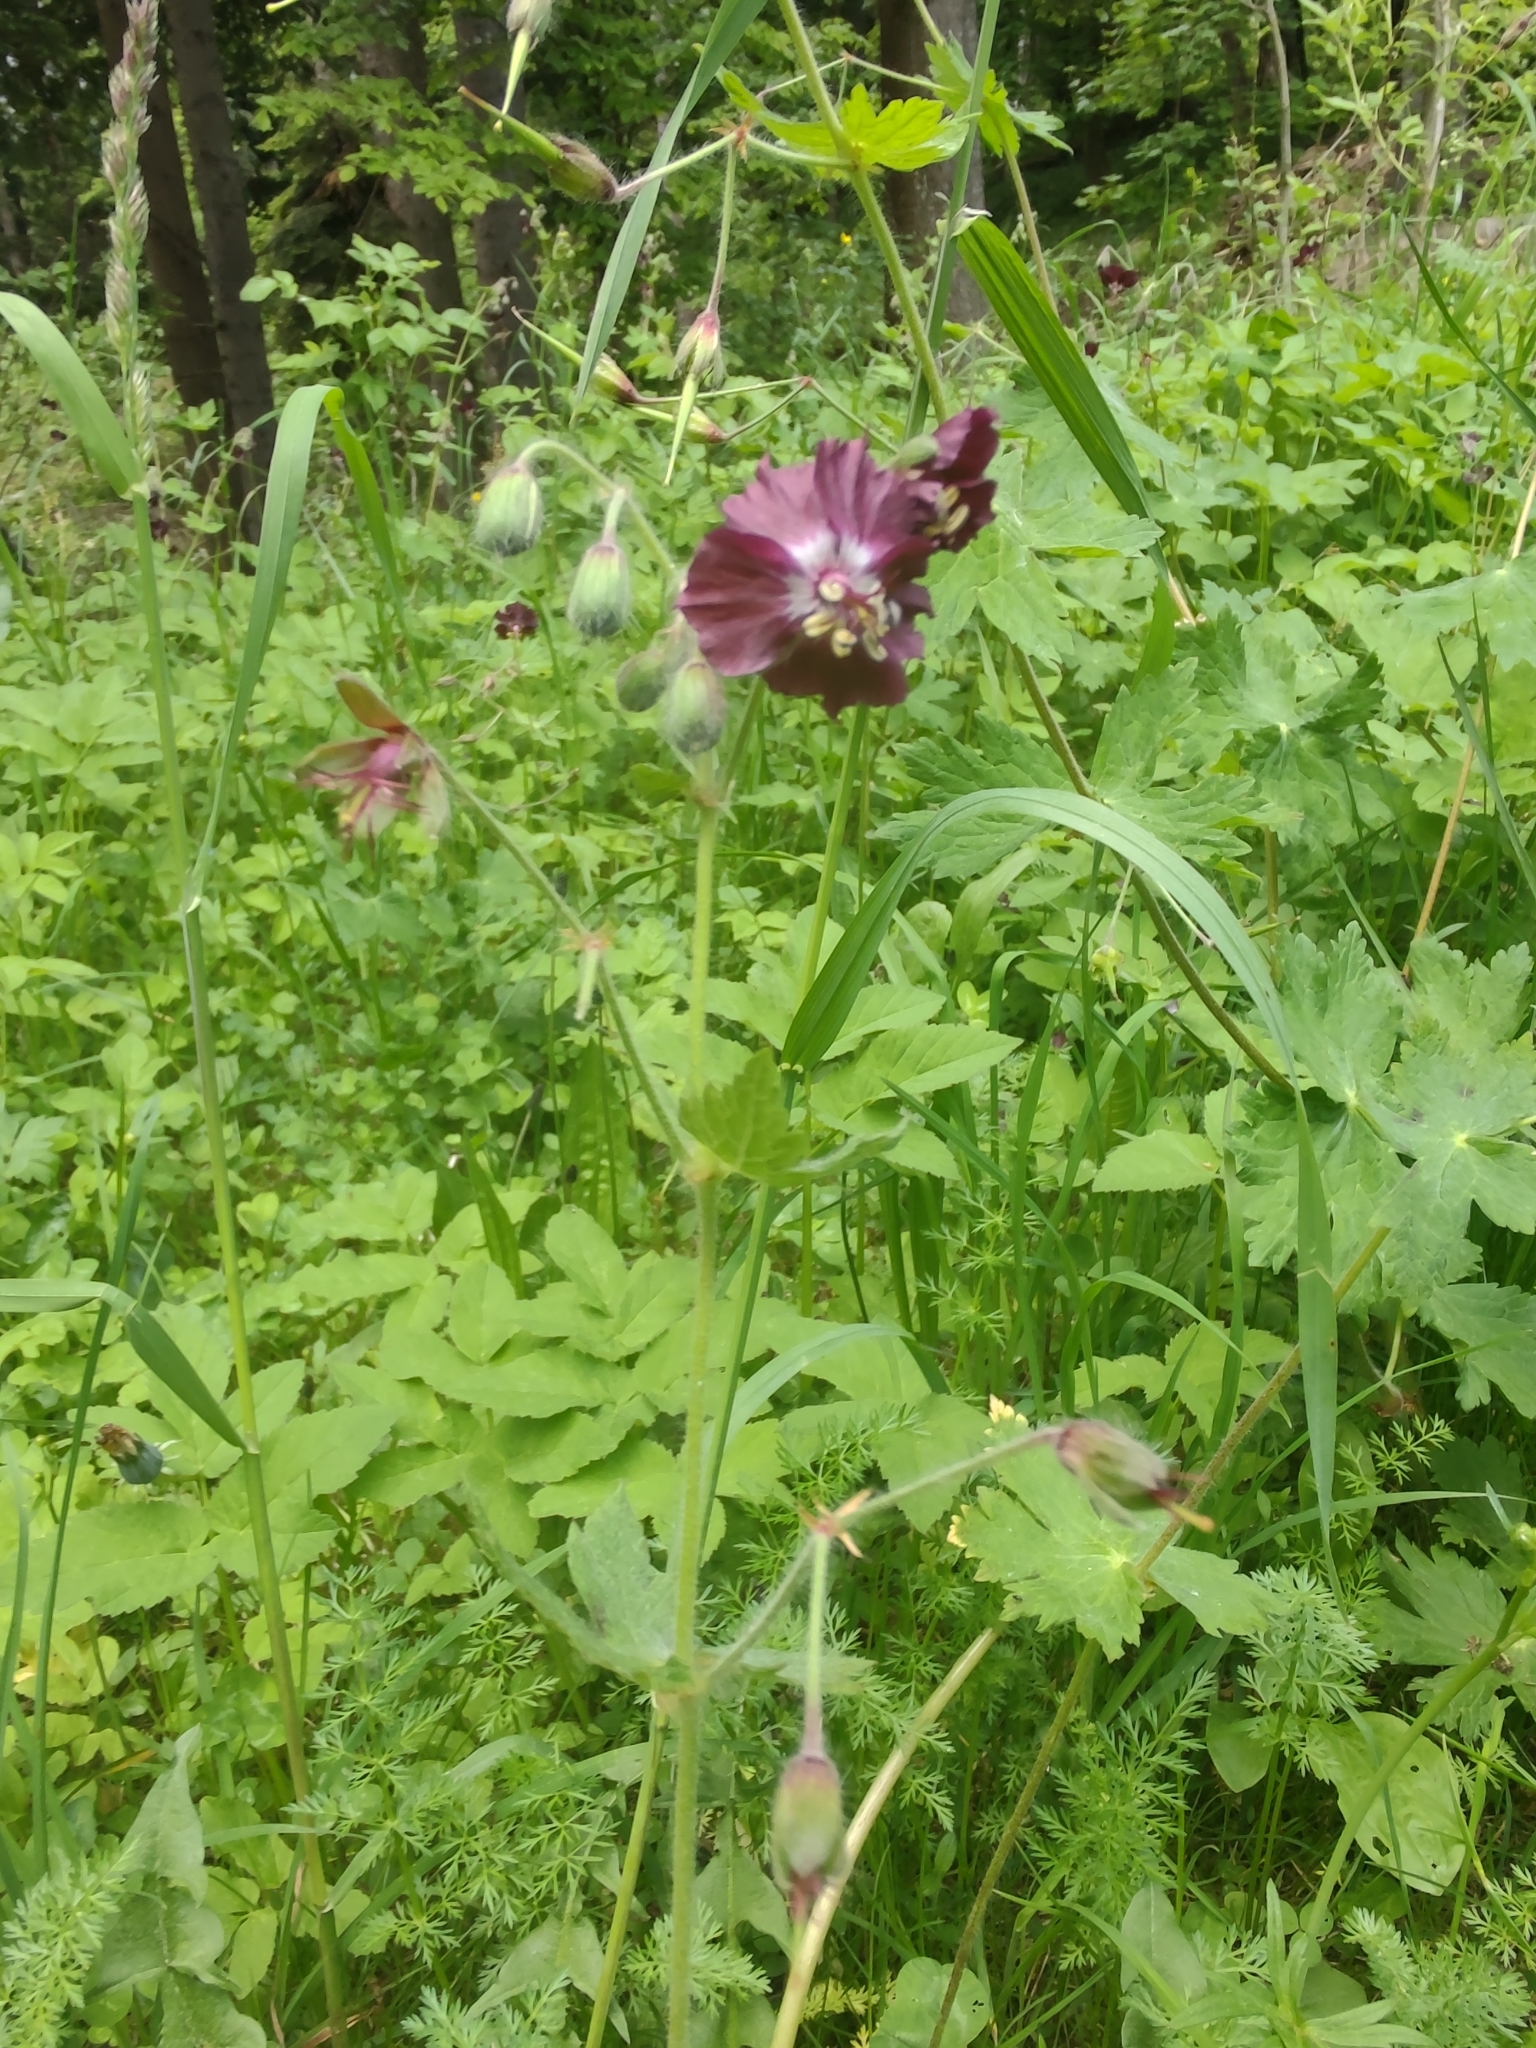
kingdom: Plantae
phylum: Tracheophyta
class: Magnoliopsida
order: Geraniales
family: Geraniaceae
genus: Geranium
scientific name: Geranium phaeum
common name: Dusky crane's-bill
